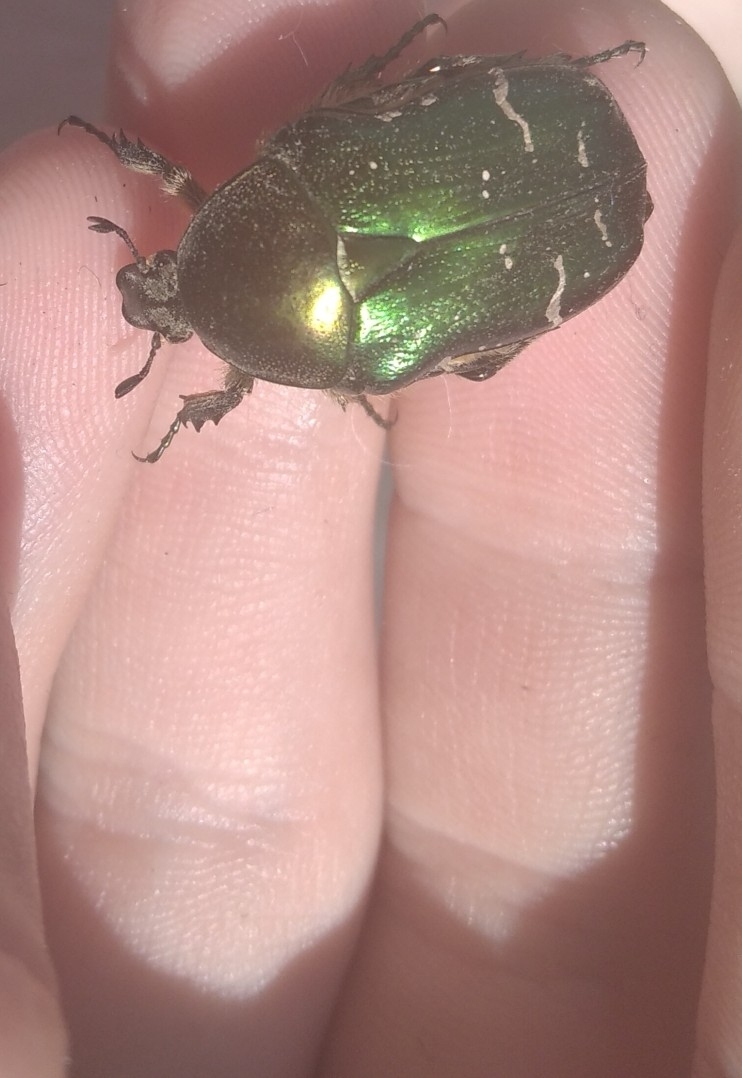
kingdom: Animalia
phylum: Arthropoda
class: Insecta
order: Coleoptera
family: Scarabaeidae
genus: Cetonia
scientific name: Cetonia aurata
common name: Rose chafer
